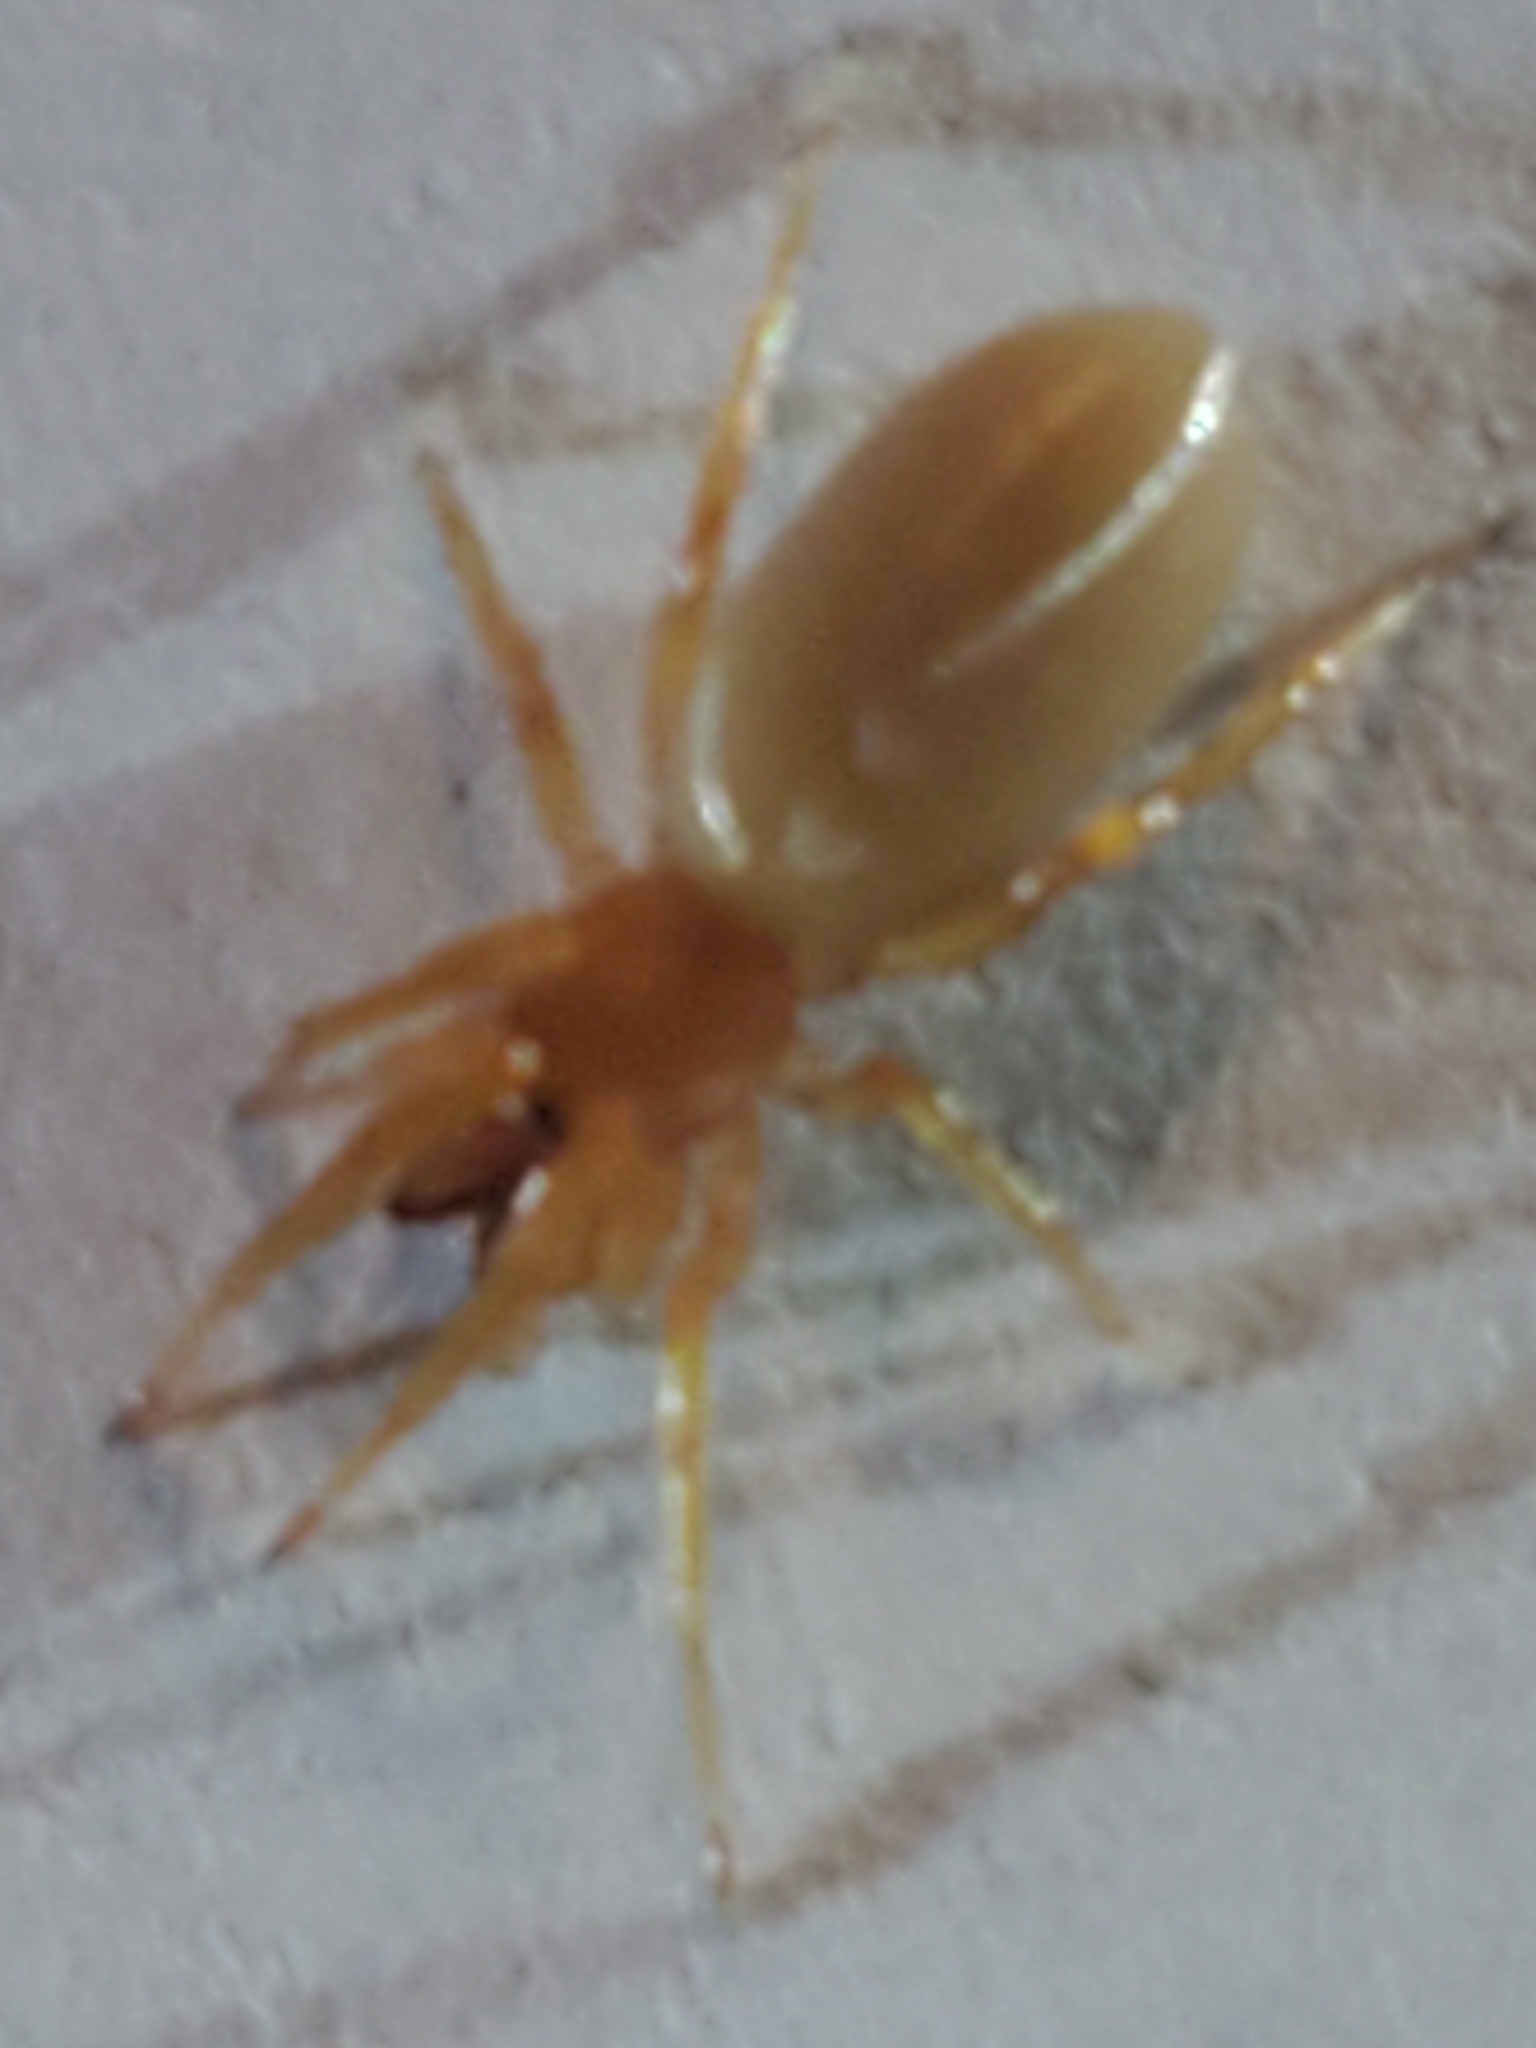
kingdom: Animalia
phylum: Arthropoda
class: Arachnida
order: Araneae
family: Dysderidae
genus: Dysdera
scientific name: Dysdera crocata
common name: Woodlouse spider
